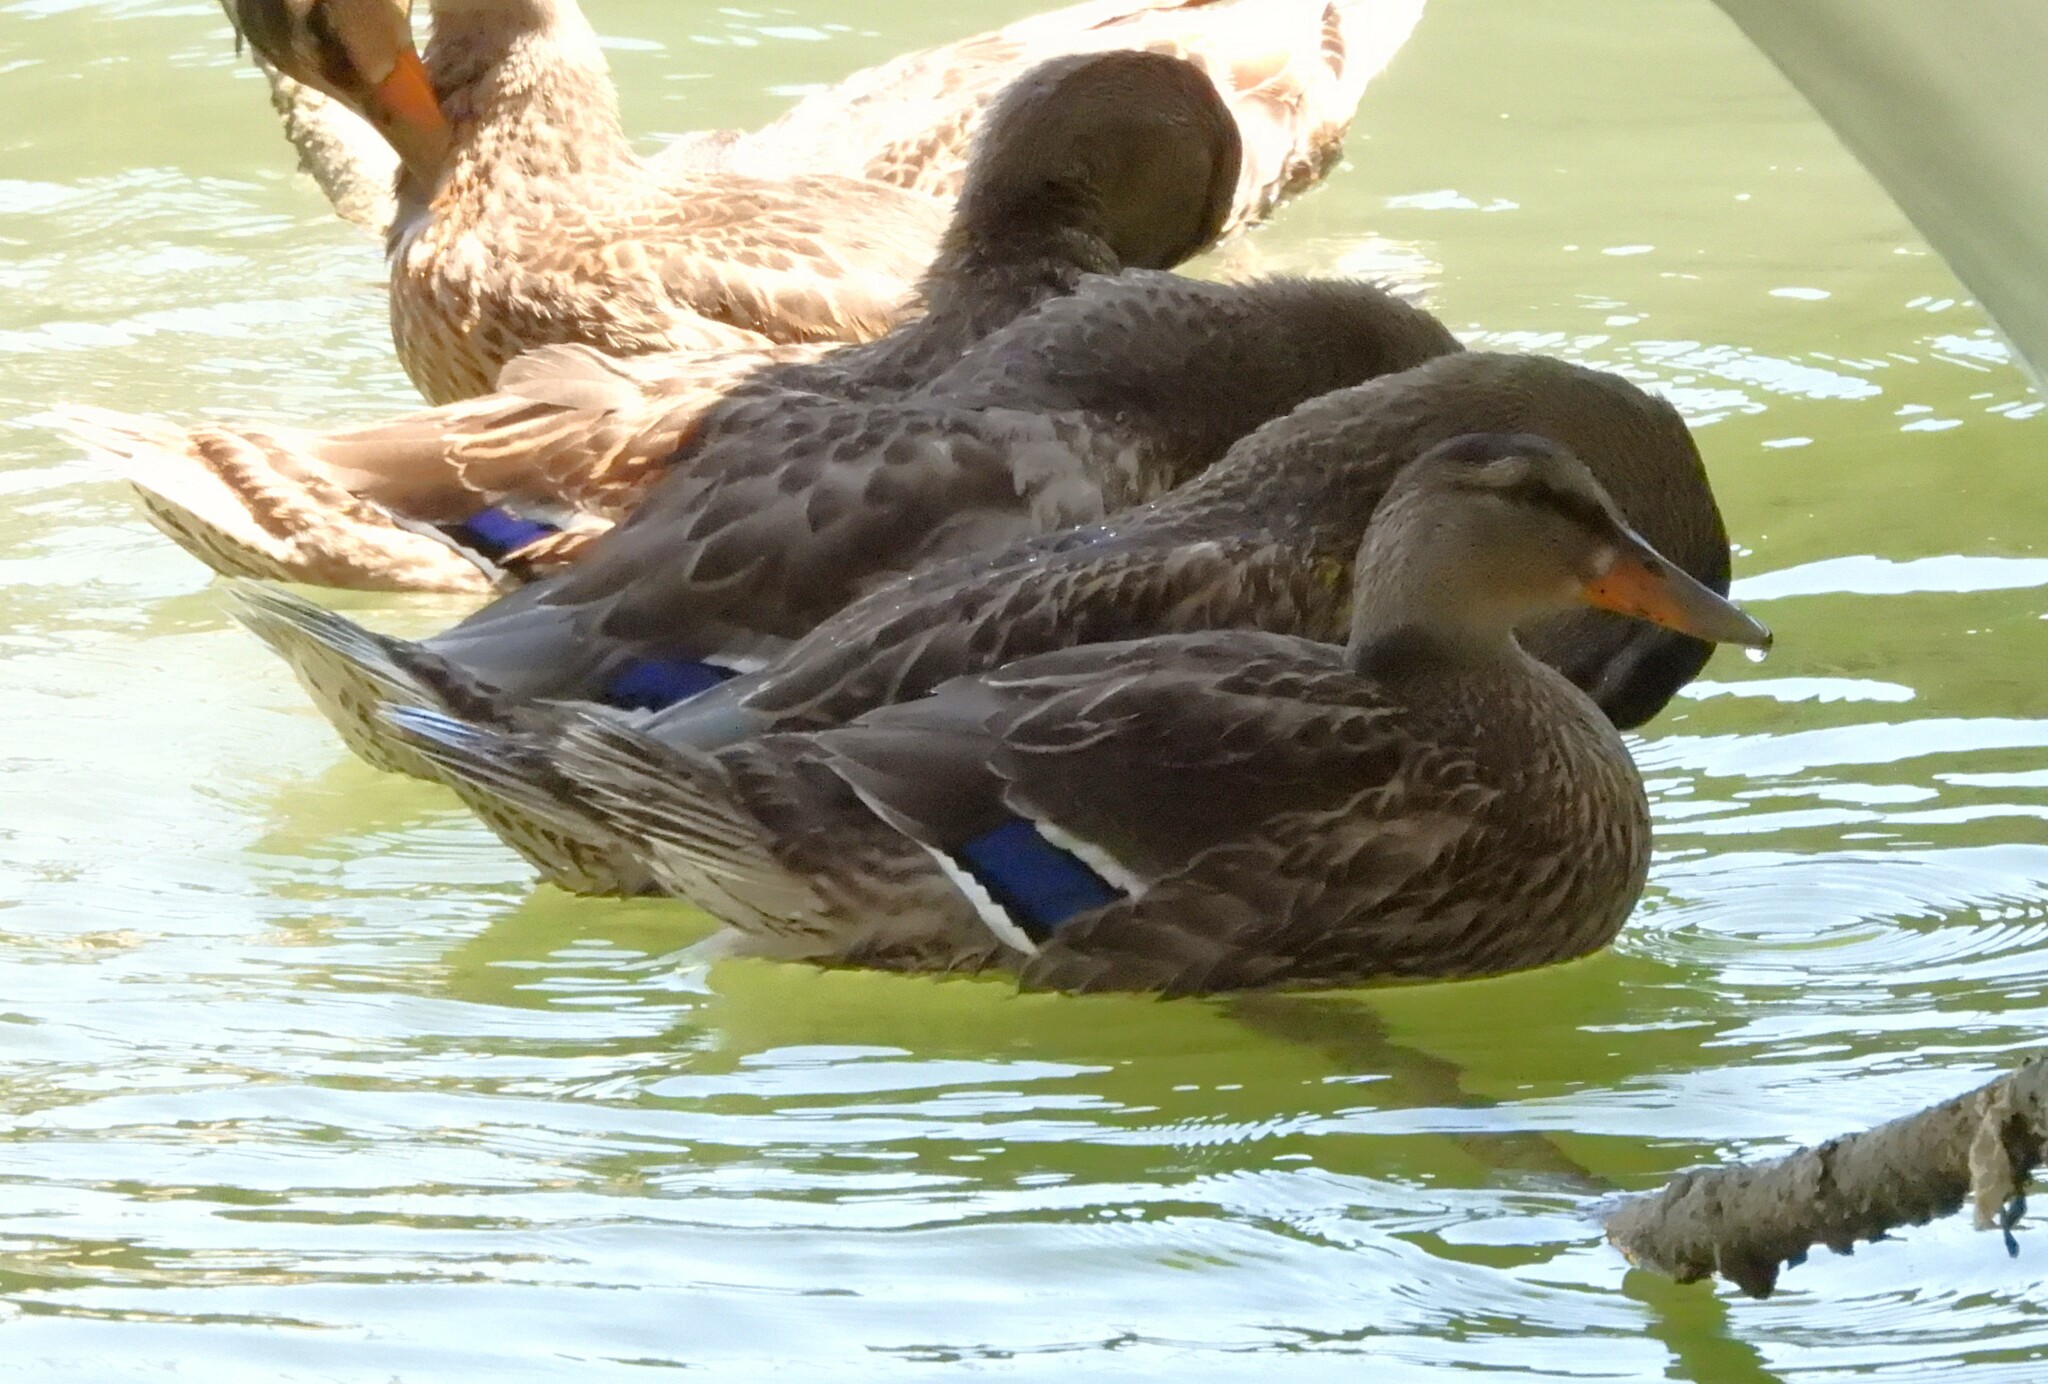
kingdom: Animalia
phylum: Chordata
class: Aves
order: Anseriformes
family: Anatidae
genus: Anas
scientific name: Anas platyrhynchos
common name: Mallard
